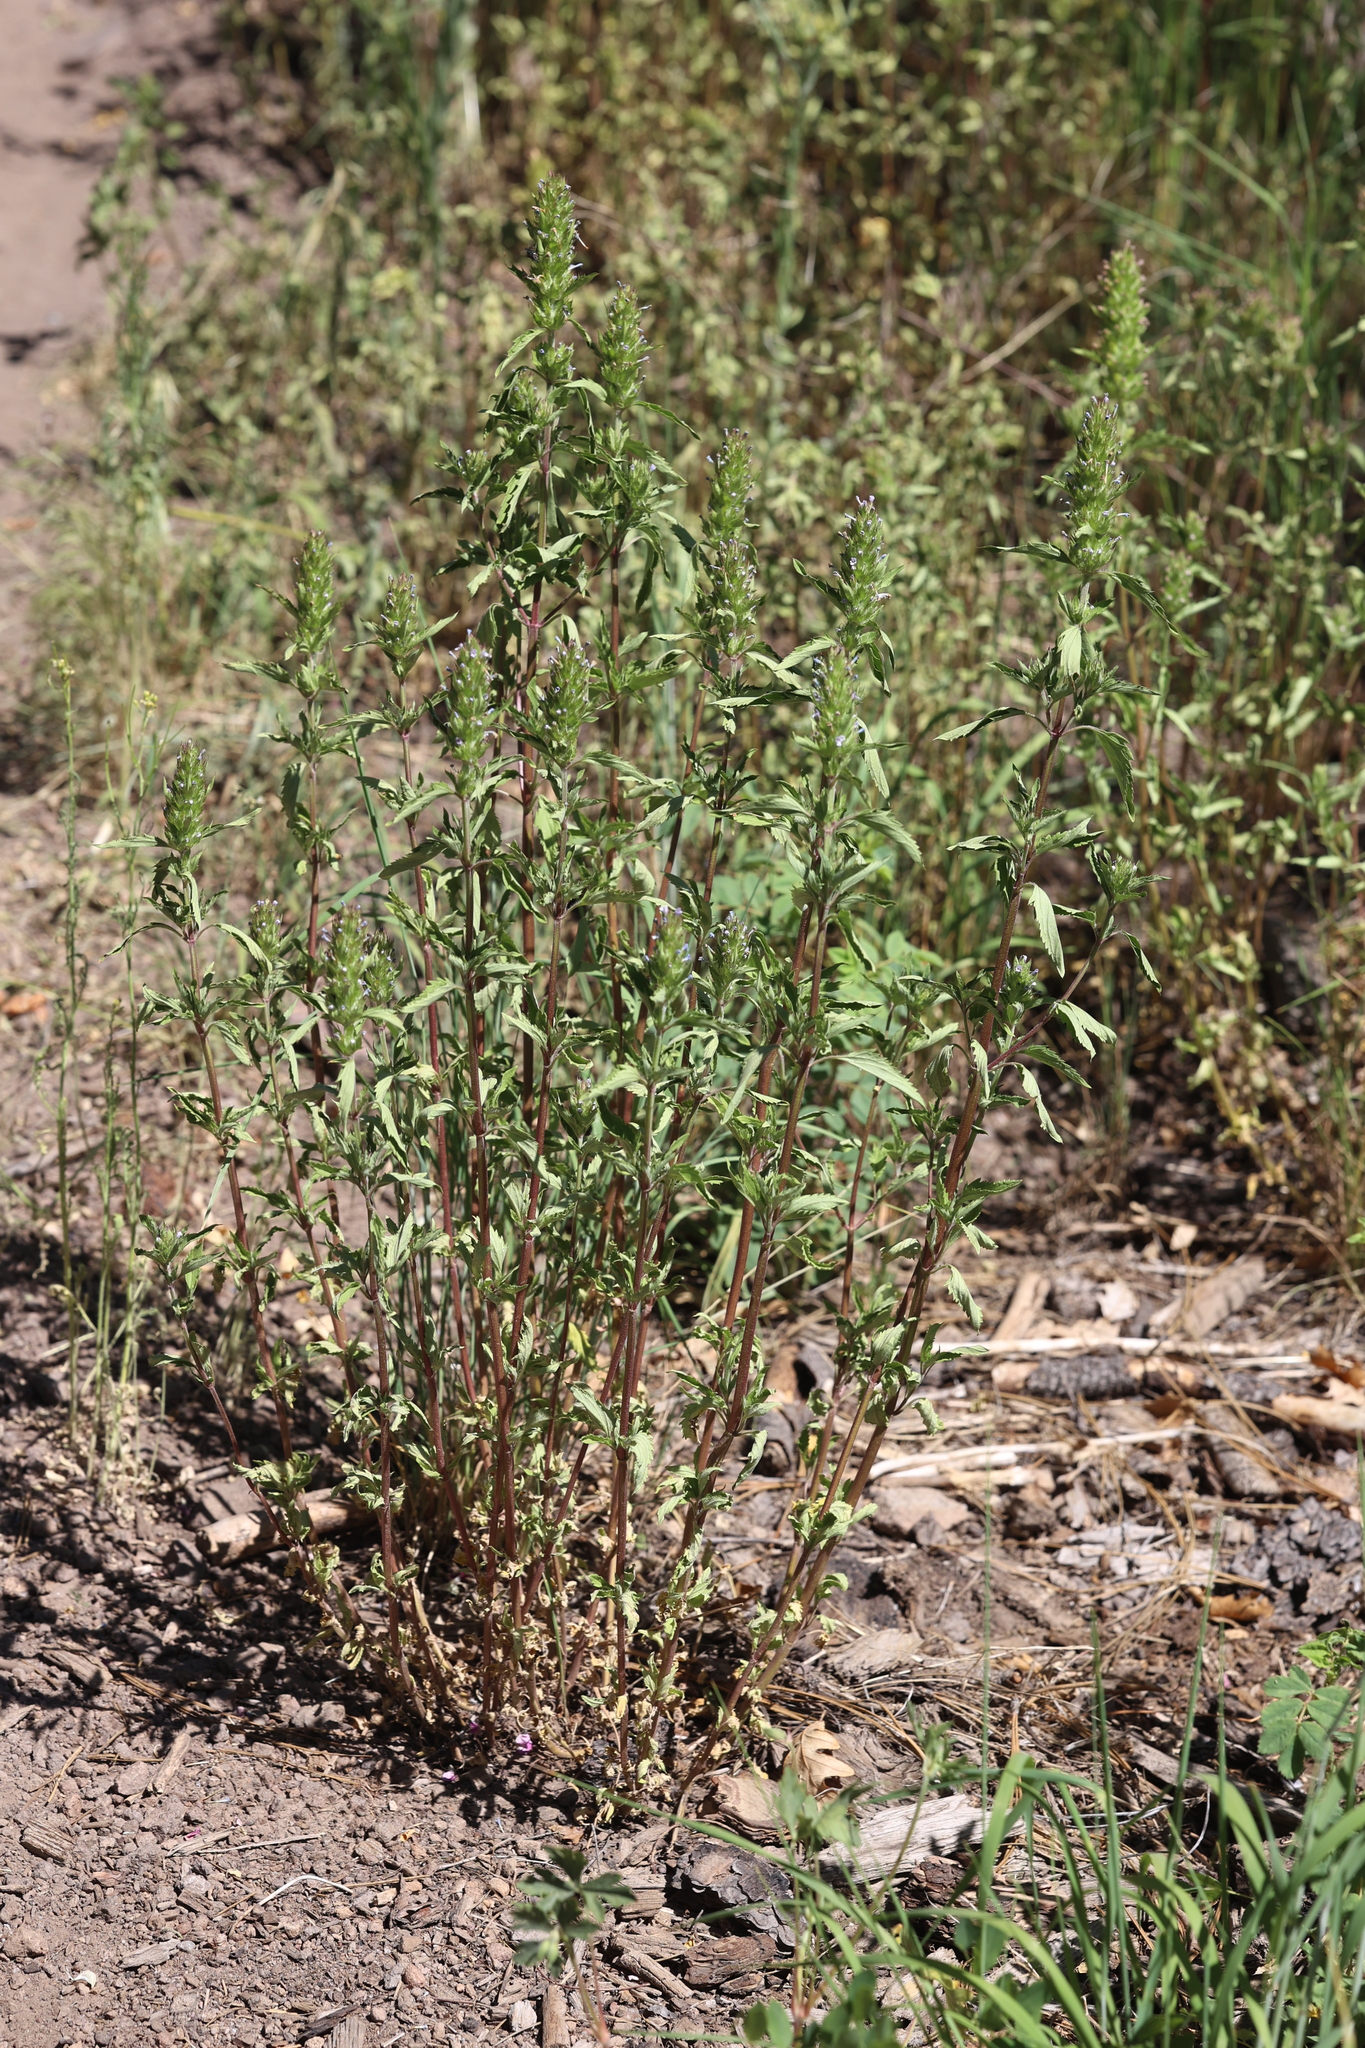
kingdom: Plantae
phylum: Tracheophyta
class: Magnoliopsida
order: Lamiales
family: Lamiaceae
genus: Dracocephalum
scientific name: Dracocephalum parviflorum
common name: American dragonhead
